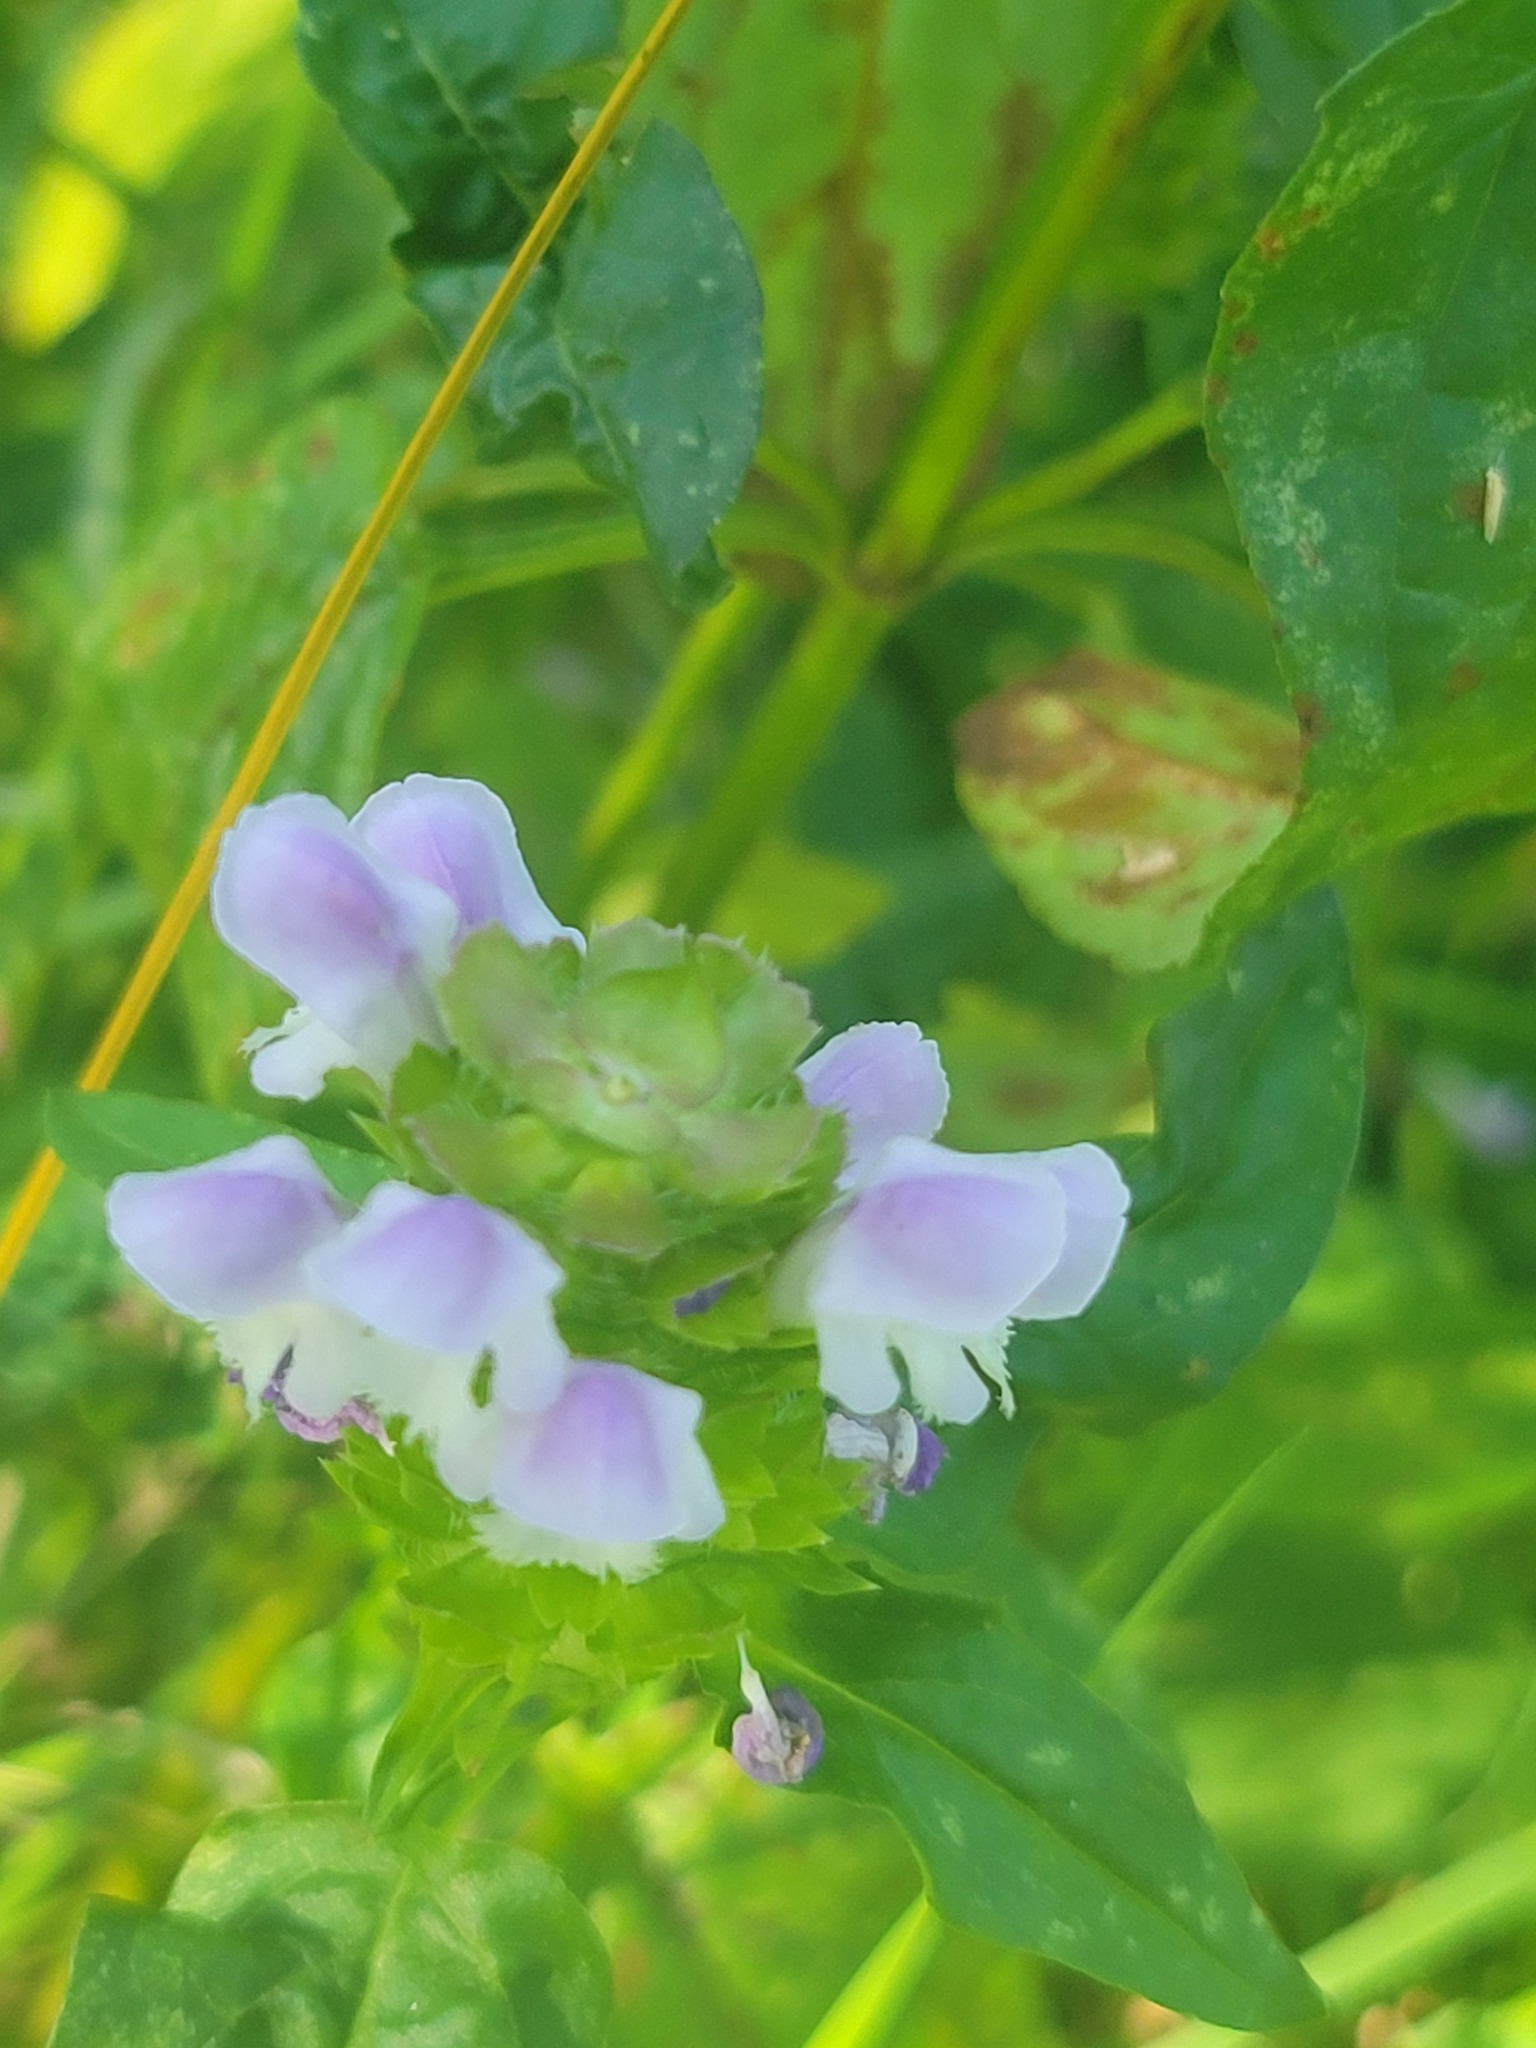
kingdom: Plantae
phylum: Tracheophyta
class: Magnoliopsida
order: Lamiales
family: Lamiaceae
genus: Prunella
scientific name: Prunella vulgaris
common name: Heal-all
